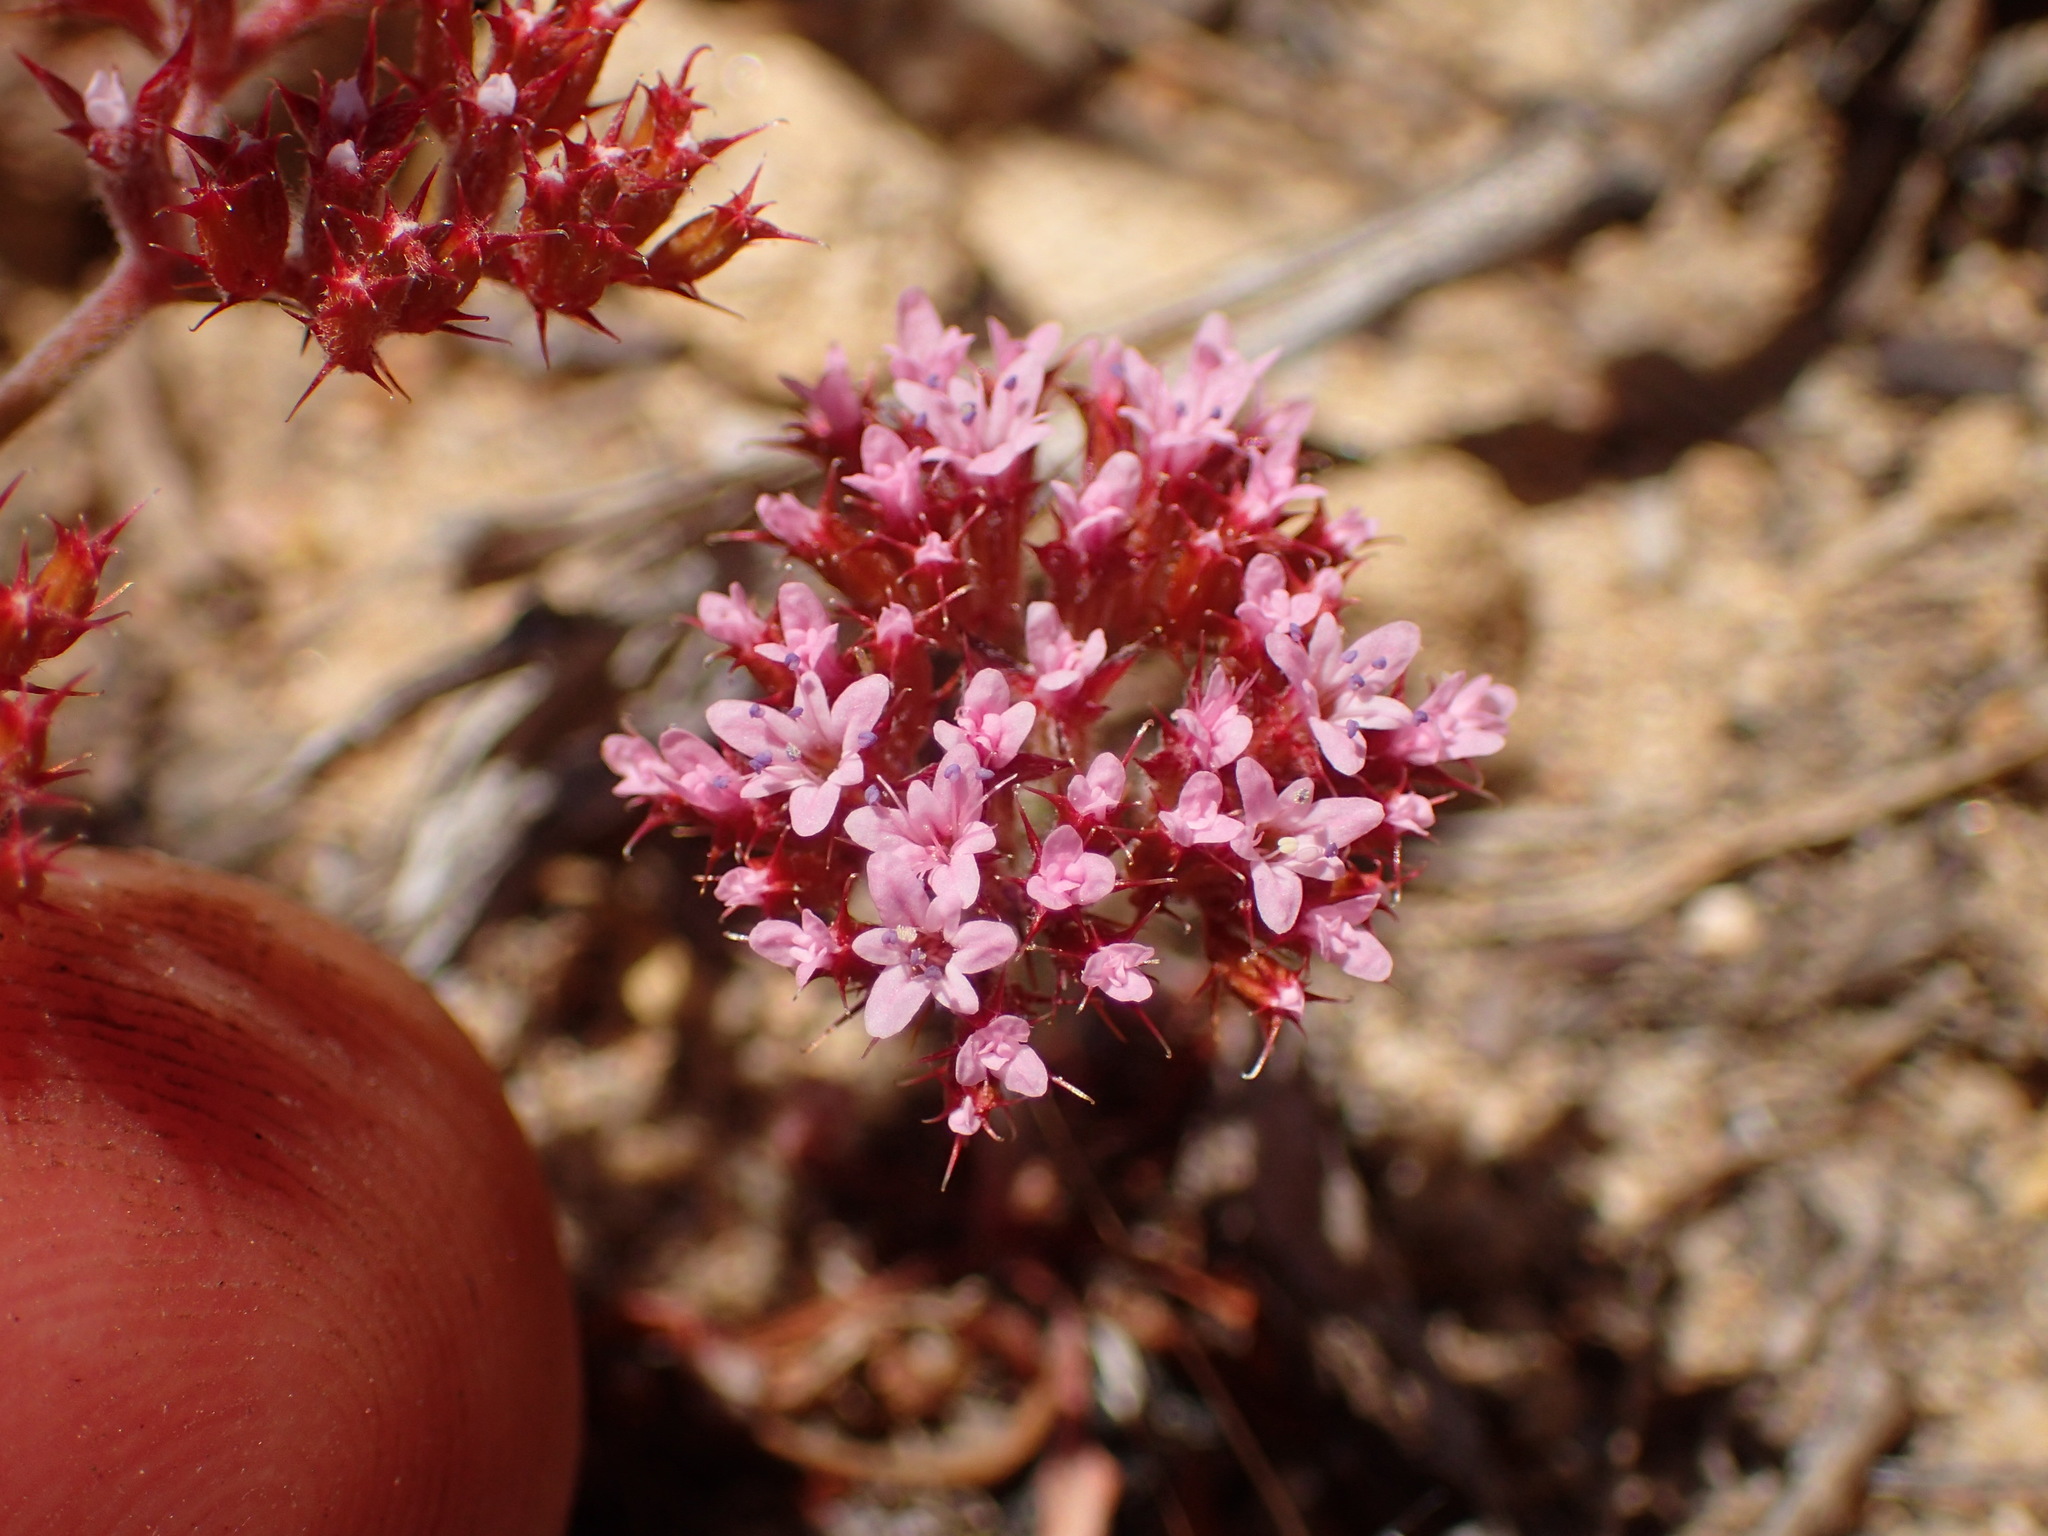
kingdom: Plantae
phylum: Tracheophyta
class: Magnoliopsida
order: Caryophyllales
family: Polygonaceae
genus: Chorizanthe
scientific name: Chorizanthe staticoides
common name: Turkish rugging
